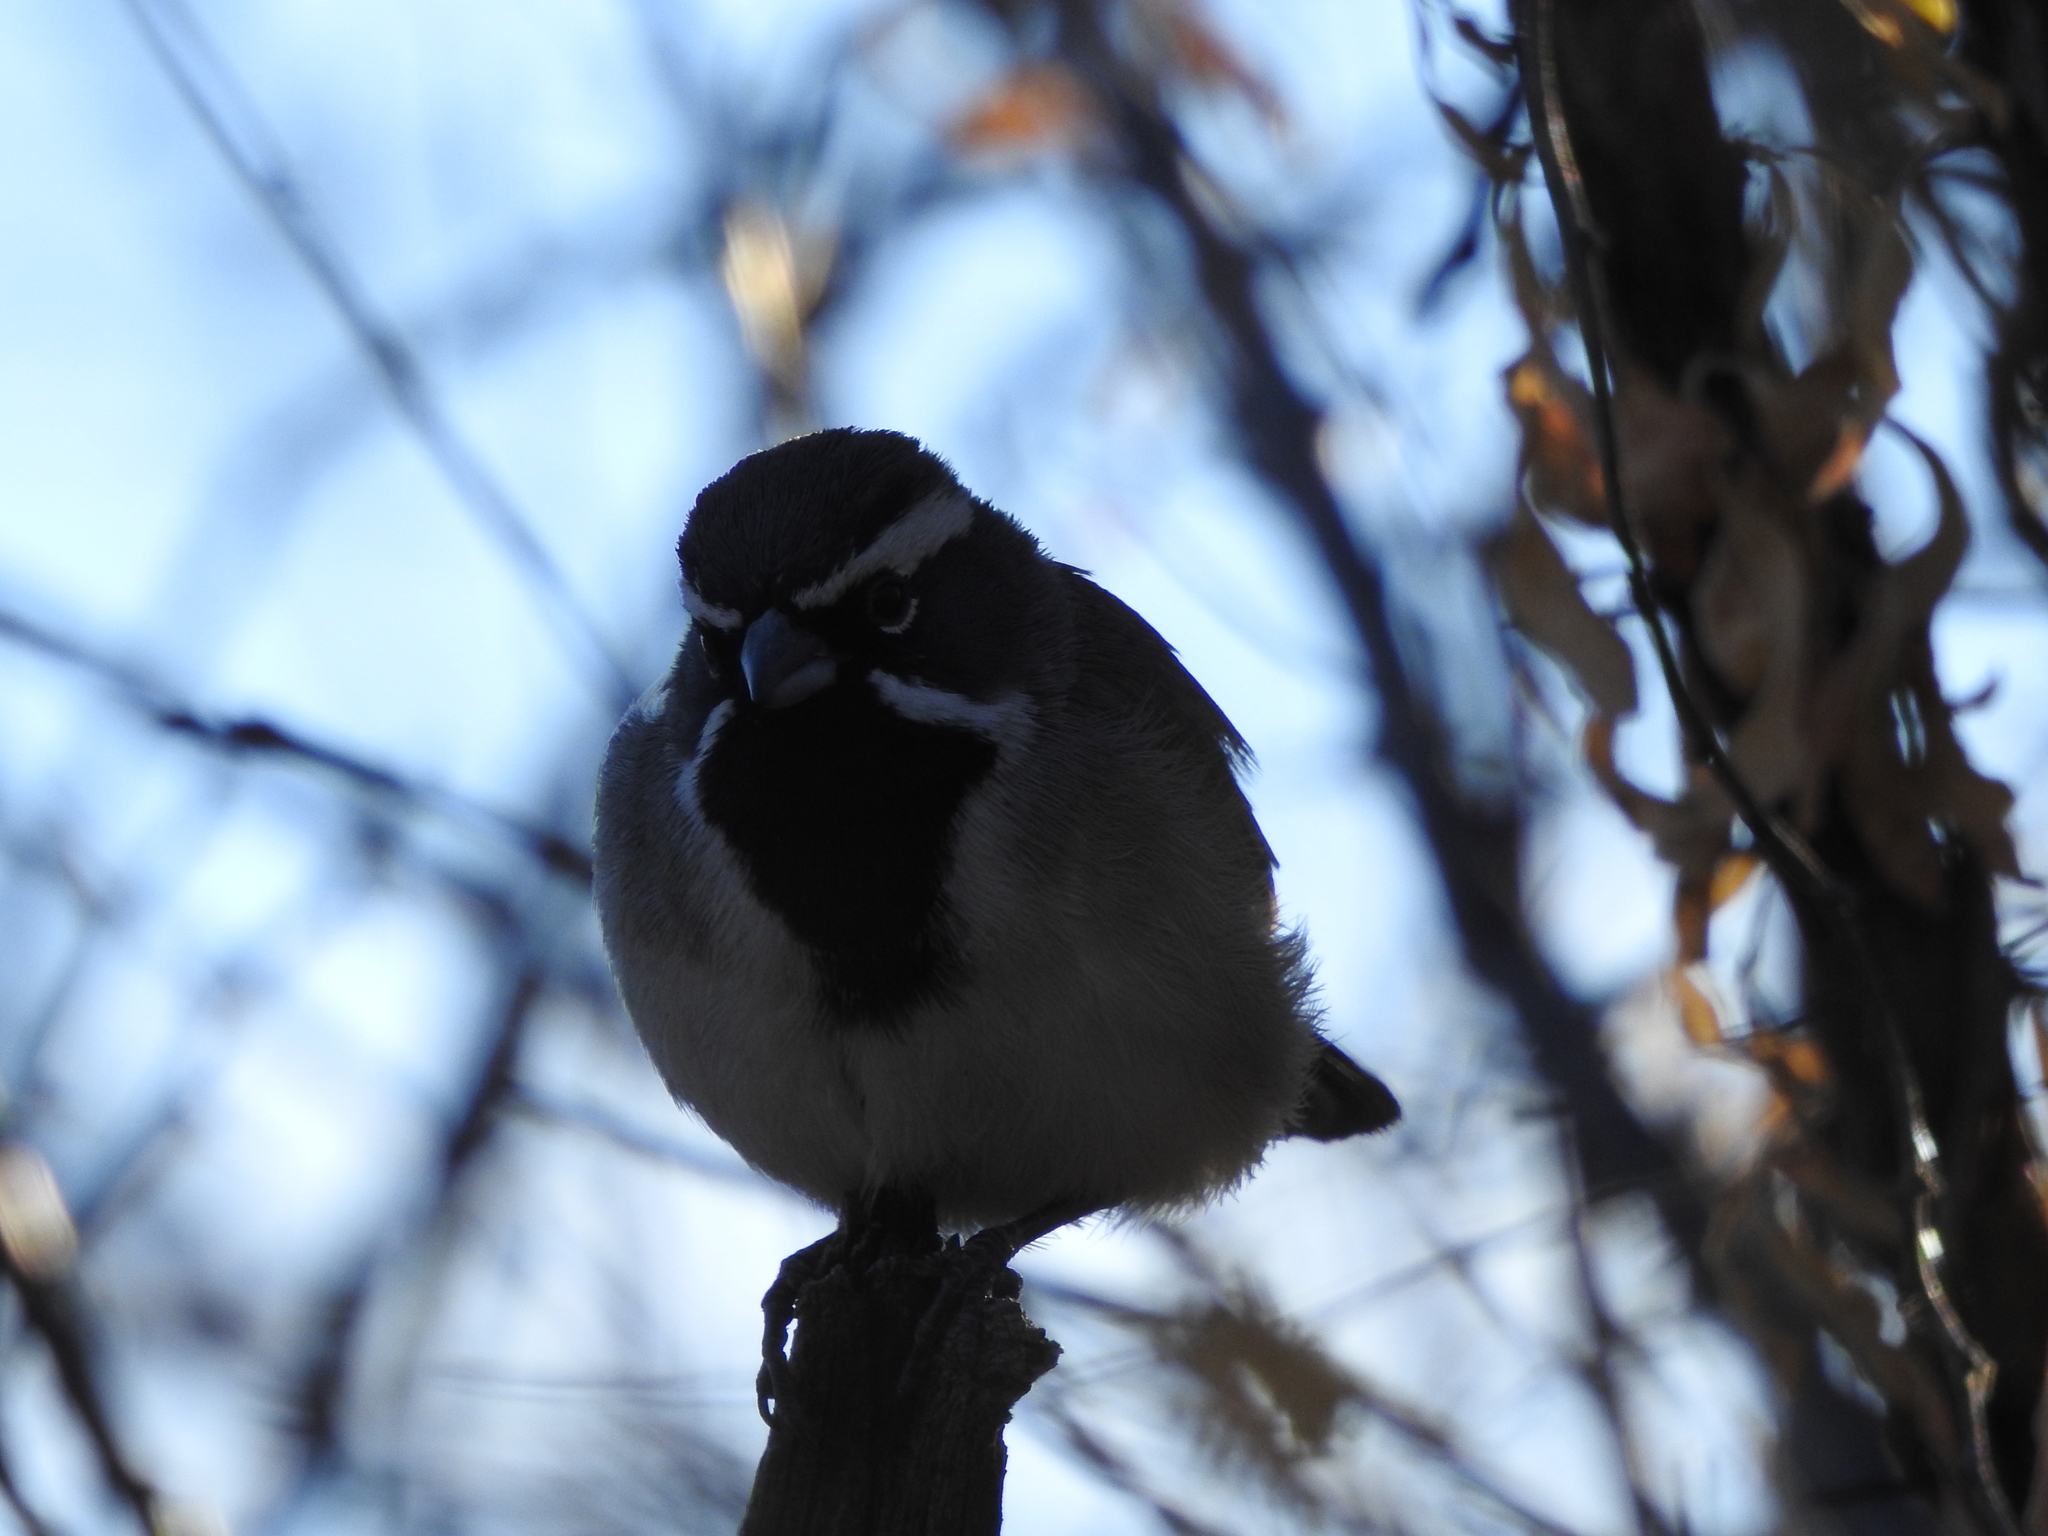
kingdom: Animalia
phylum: Chordata
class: Aves
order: Passeriformes
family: Passerellidae
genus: Amphispiza
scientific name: Amphispiza bilineata
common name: Black-throated sparrow
